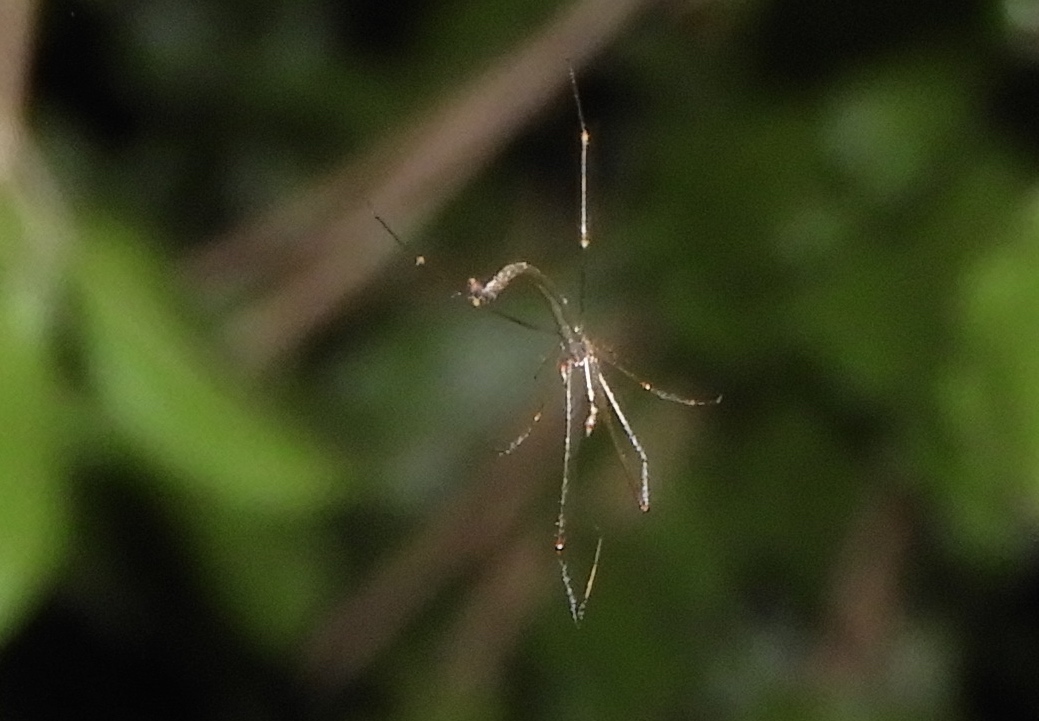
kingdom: Animalia
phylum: Arthropoda
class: Arachnida
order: Araneae
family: Theridiidae
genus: Ariamnes
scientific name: Ariamnes mexicanus
